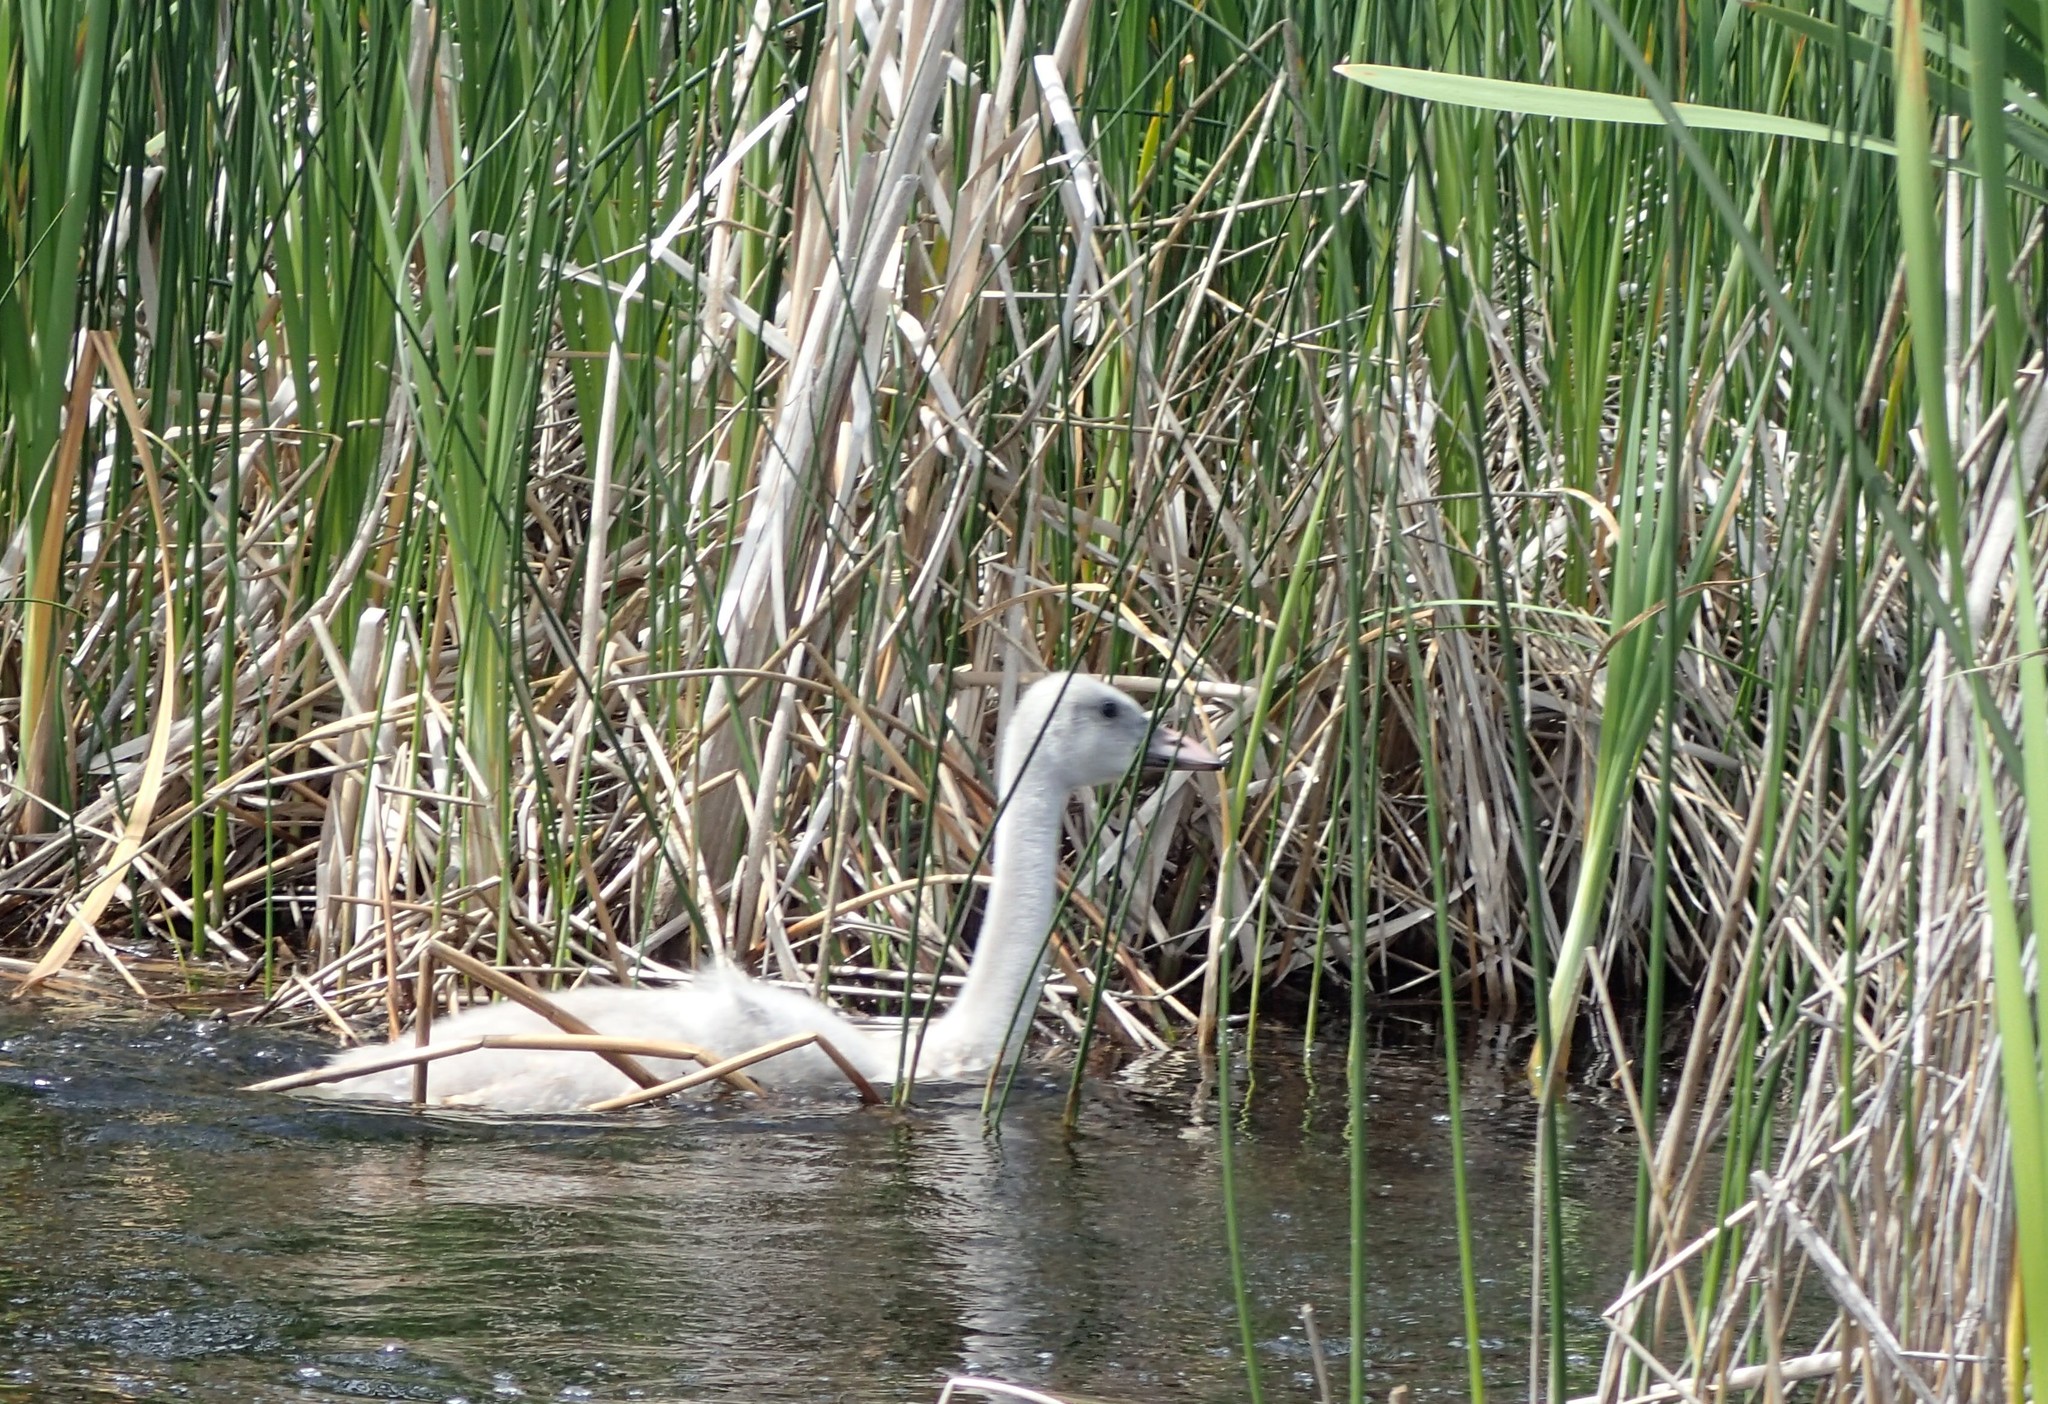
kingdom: Animalia
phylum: Chordata
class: Aves
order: Anseriformes
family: Anatidae
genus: Cygnus
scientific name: Cygnus buccinator
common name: Trumpeter swan
